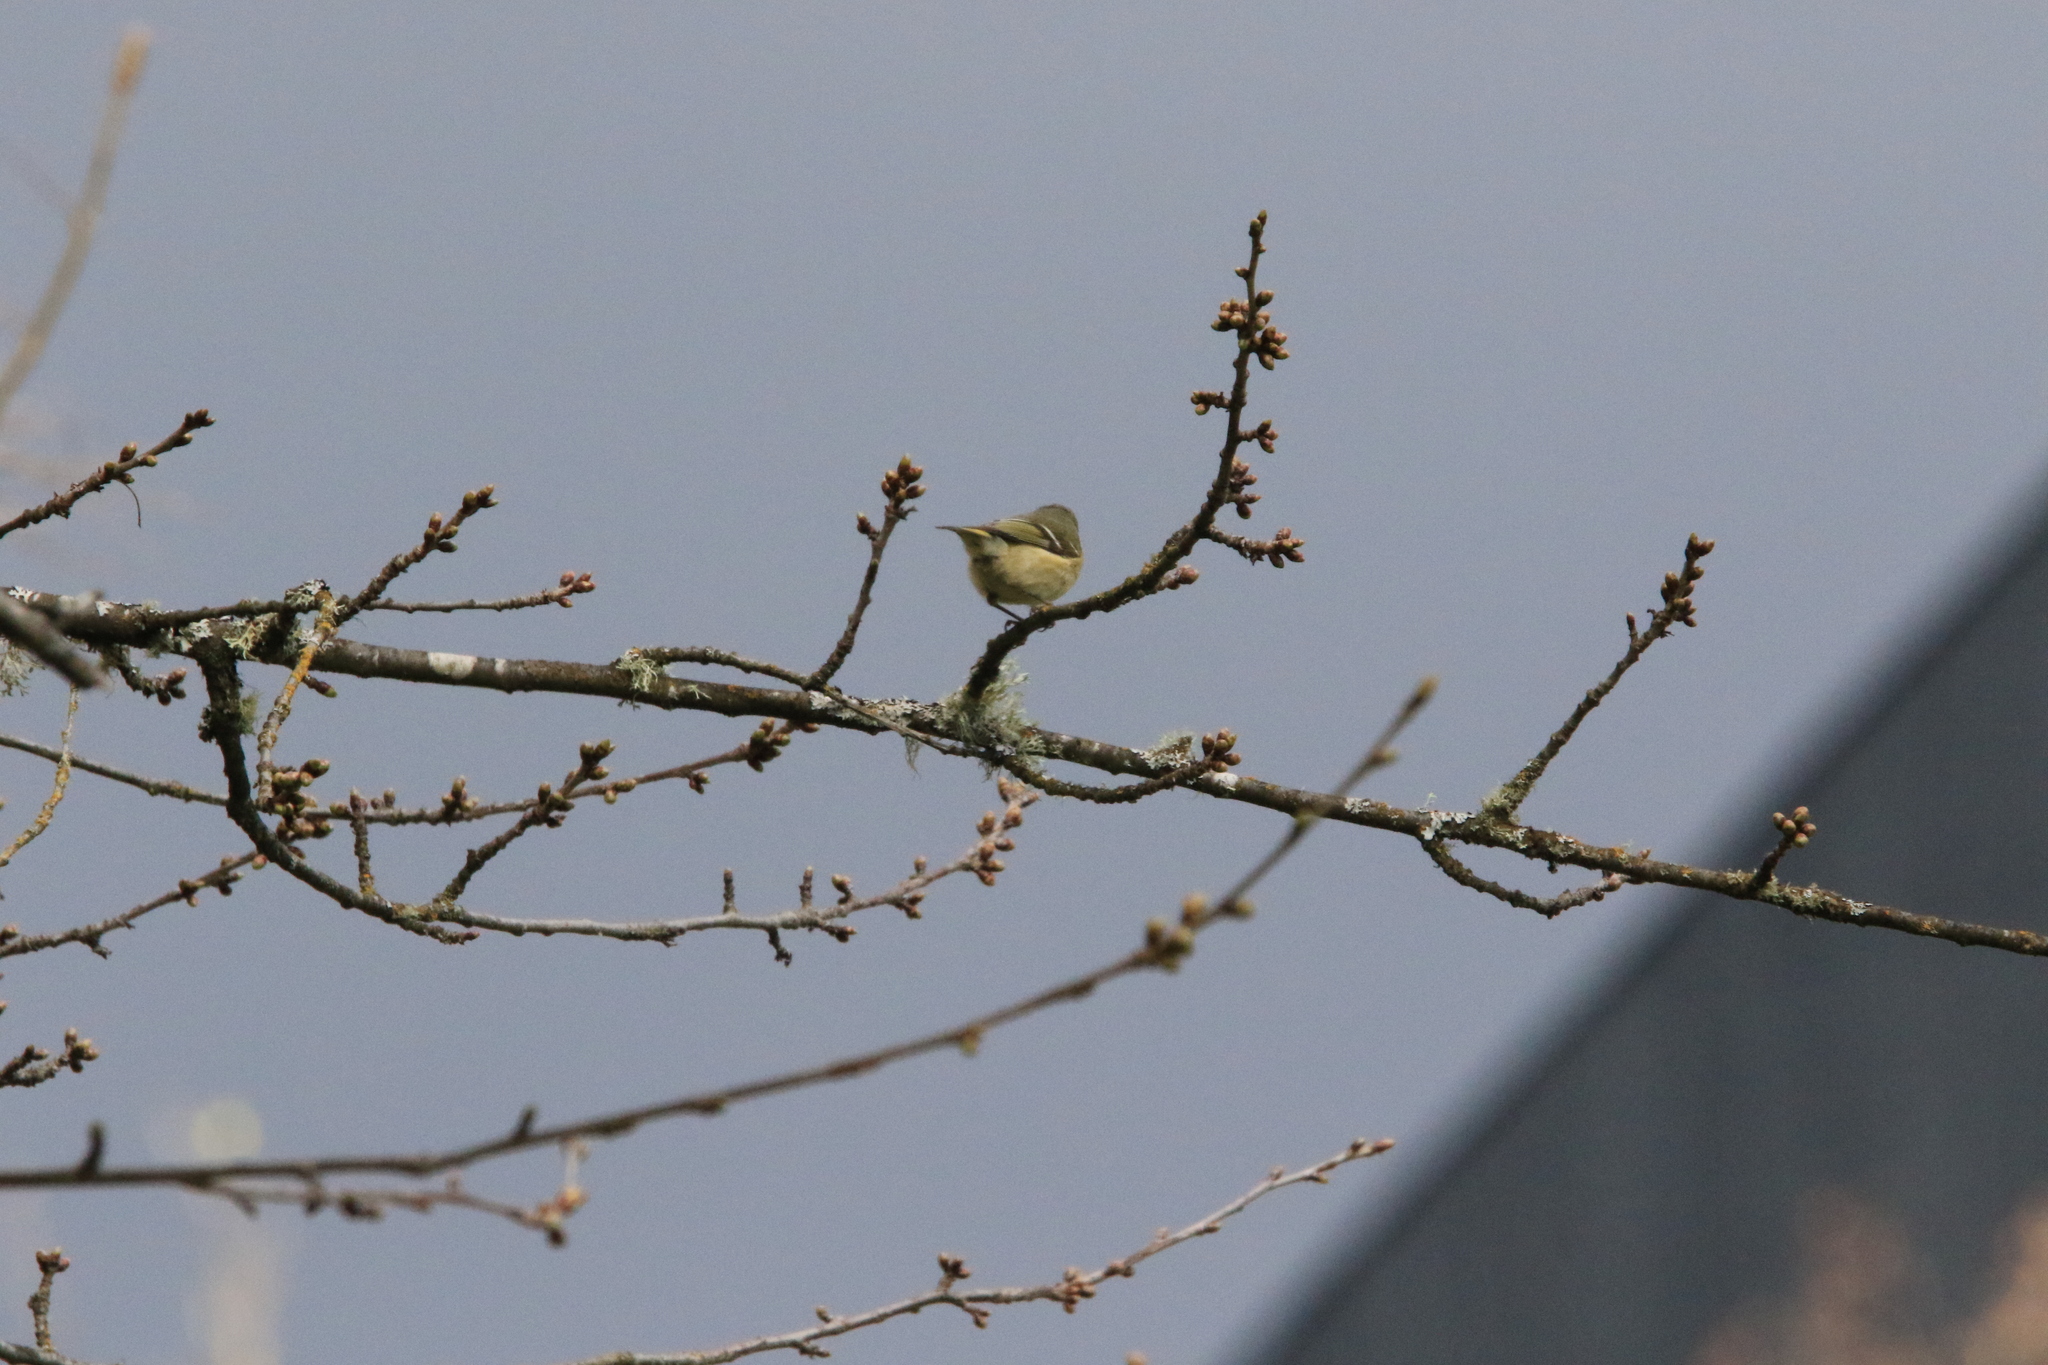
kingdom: Animalia
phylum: Chordata
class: Aves
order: Passeriformes
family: Regulidae
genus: Regulus
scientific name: Regulus calendula
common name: Ruby-crowned kinglet
